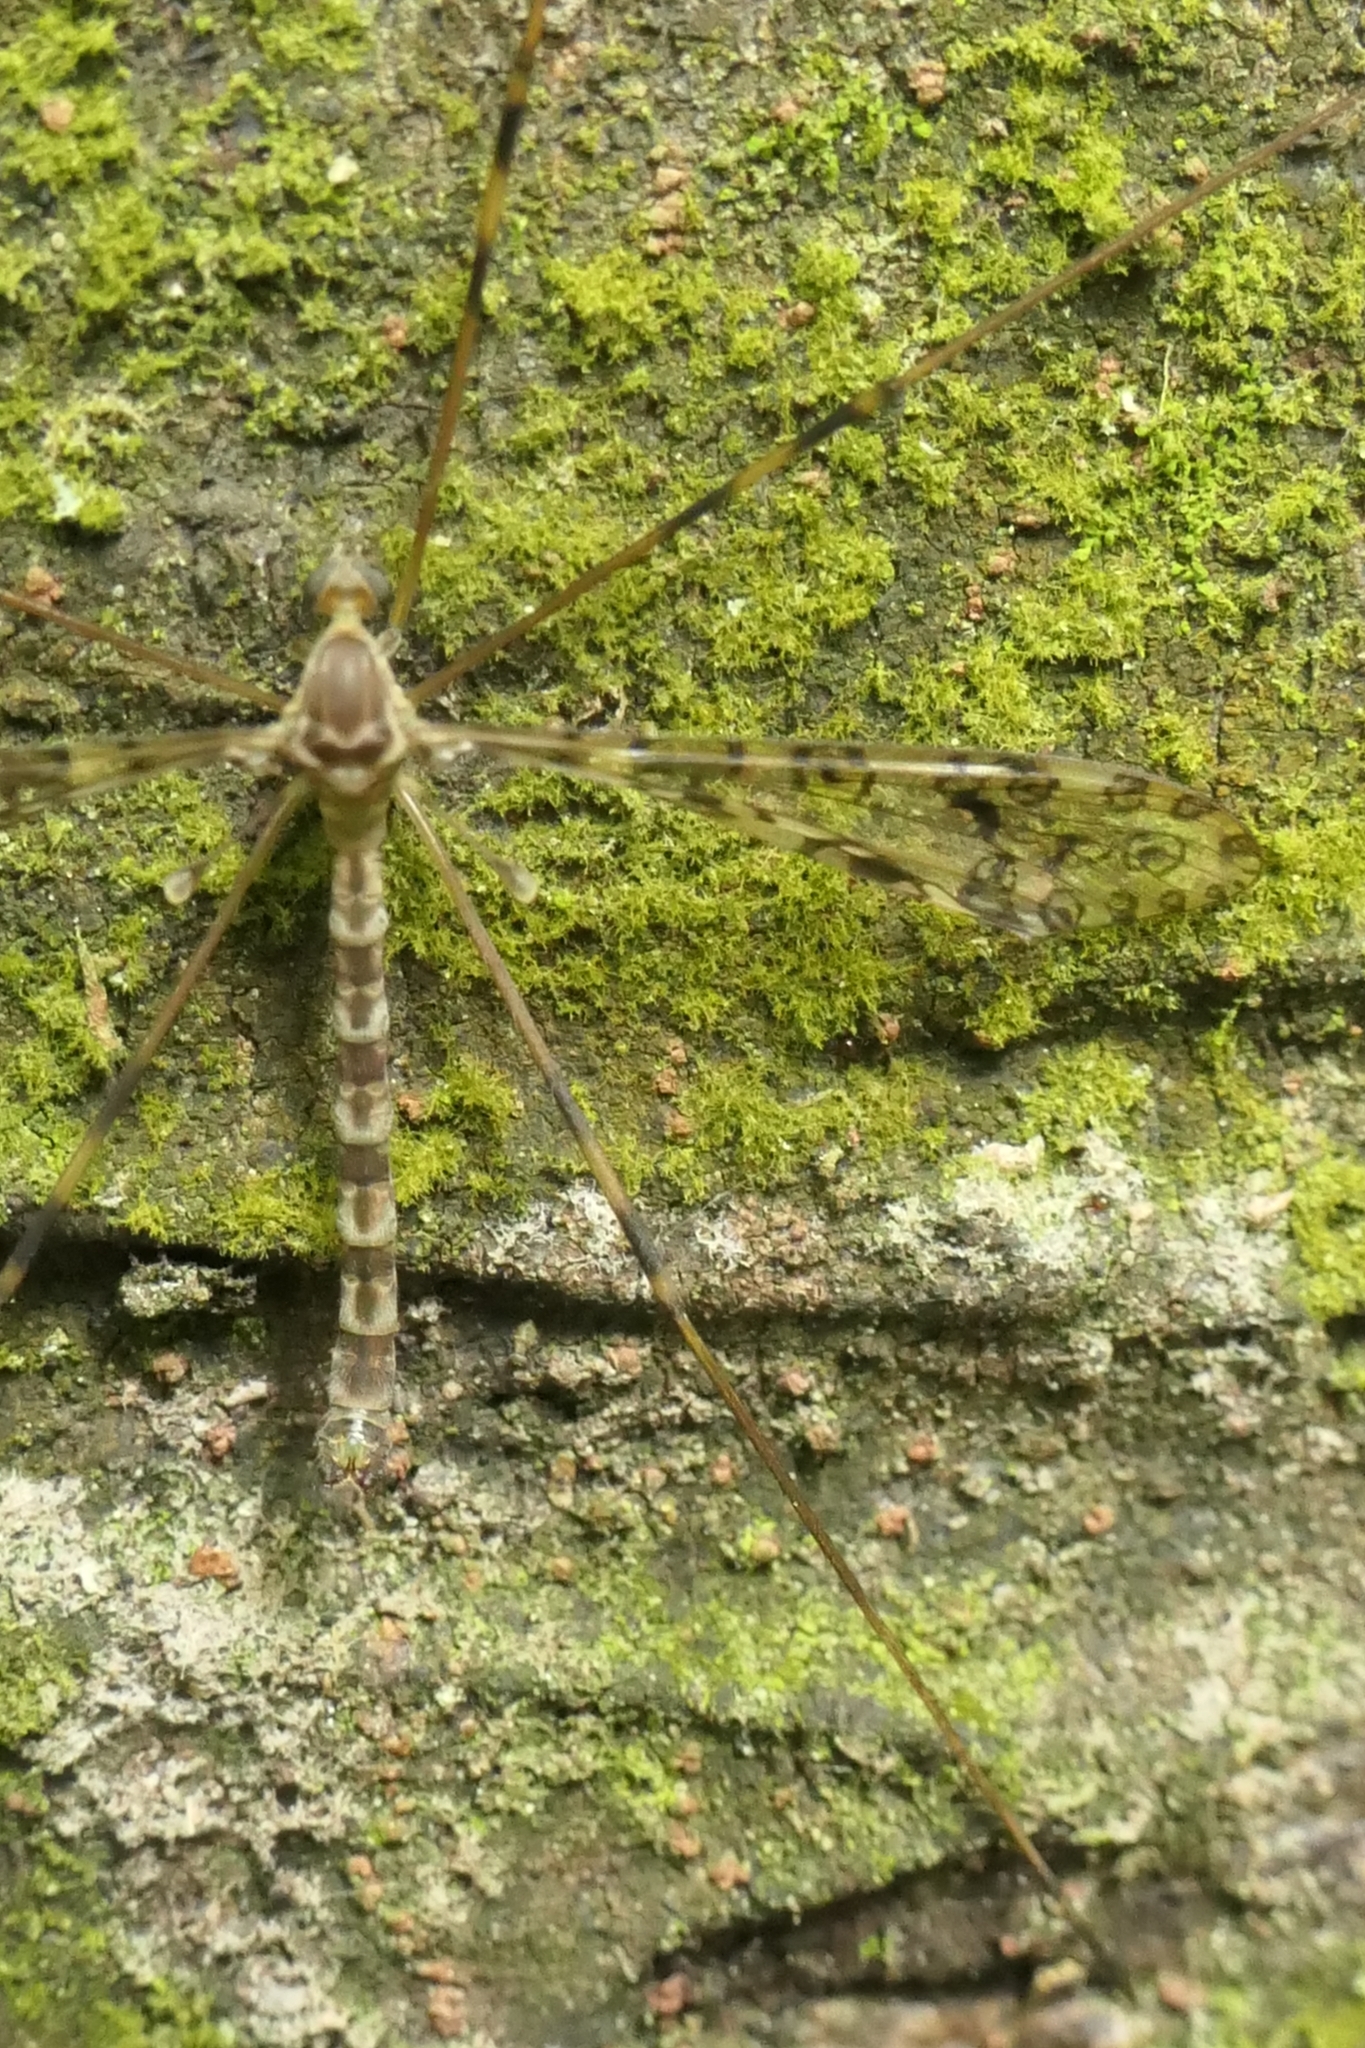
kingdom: Animalia
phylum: Arthropoda
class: Insecta
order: Diptera
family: Limoniidae
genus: Austrolimnophila
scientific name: Austrolimnophila argus
